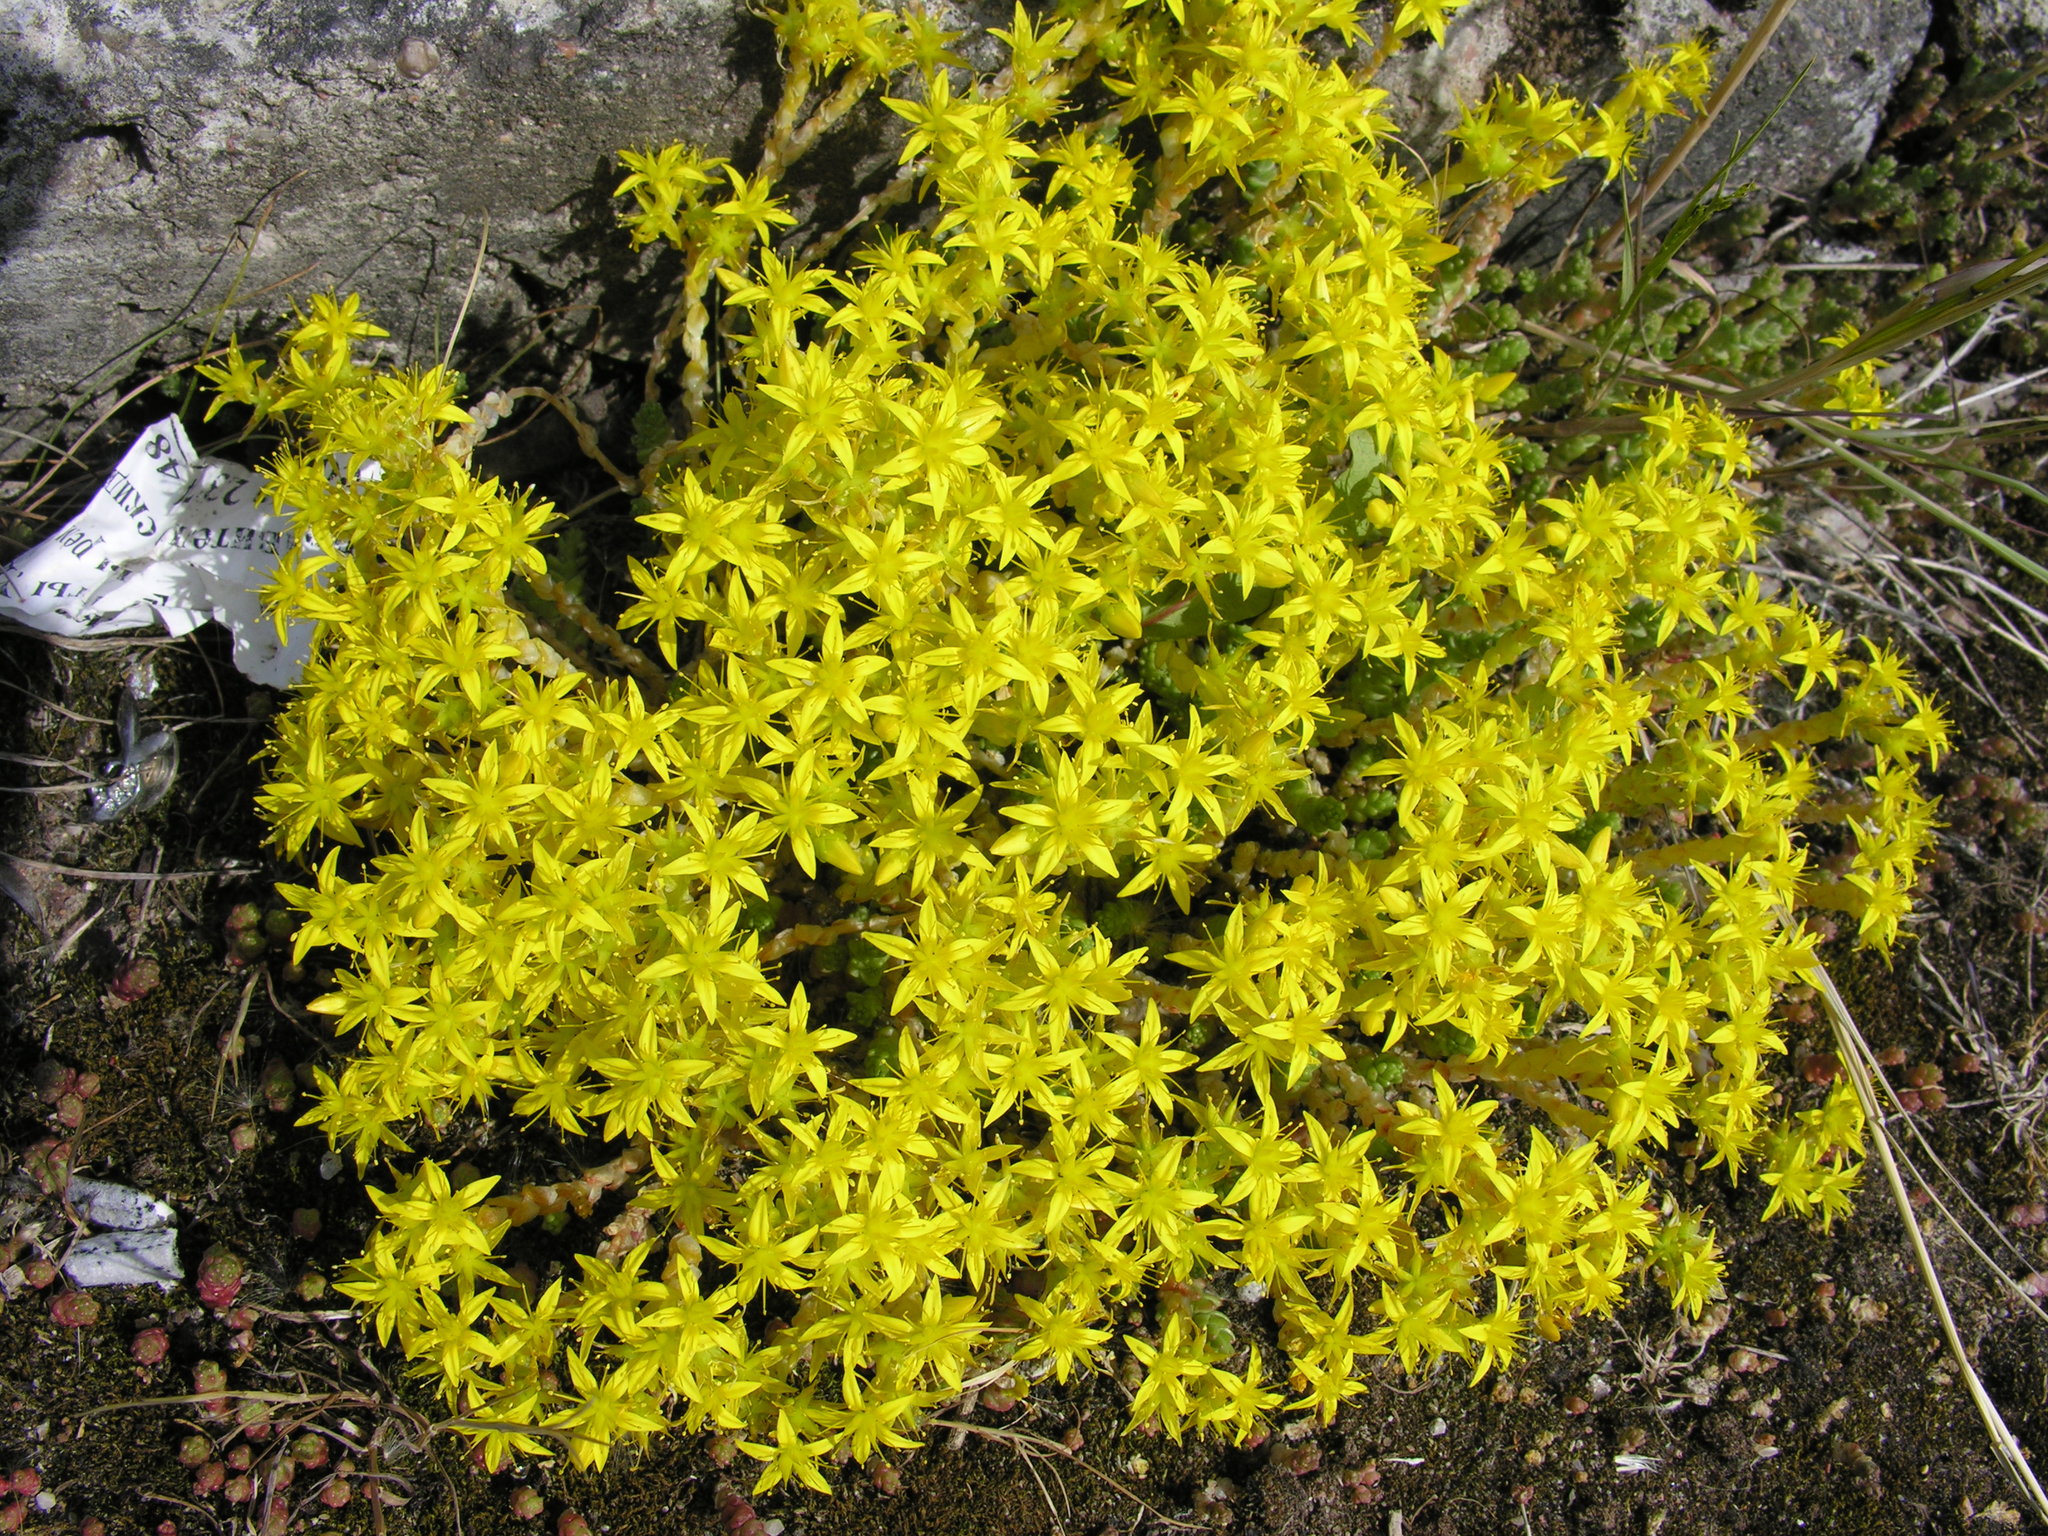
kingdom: Plantae
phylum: Tracheophyta
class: Magnoliopsida
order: Saxifragales
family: Crassulaceae
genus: Sedum
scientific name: Sedum acre
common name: Biting stonecrop
